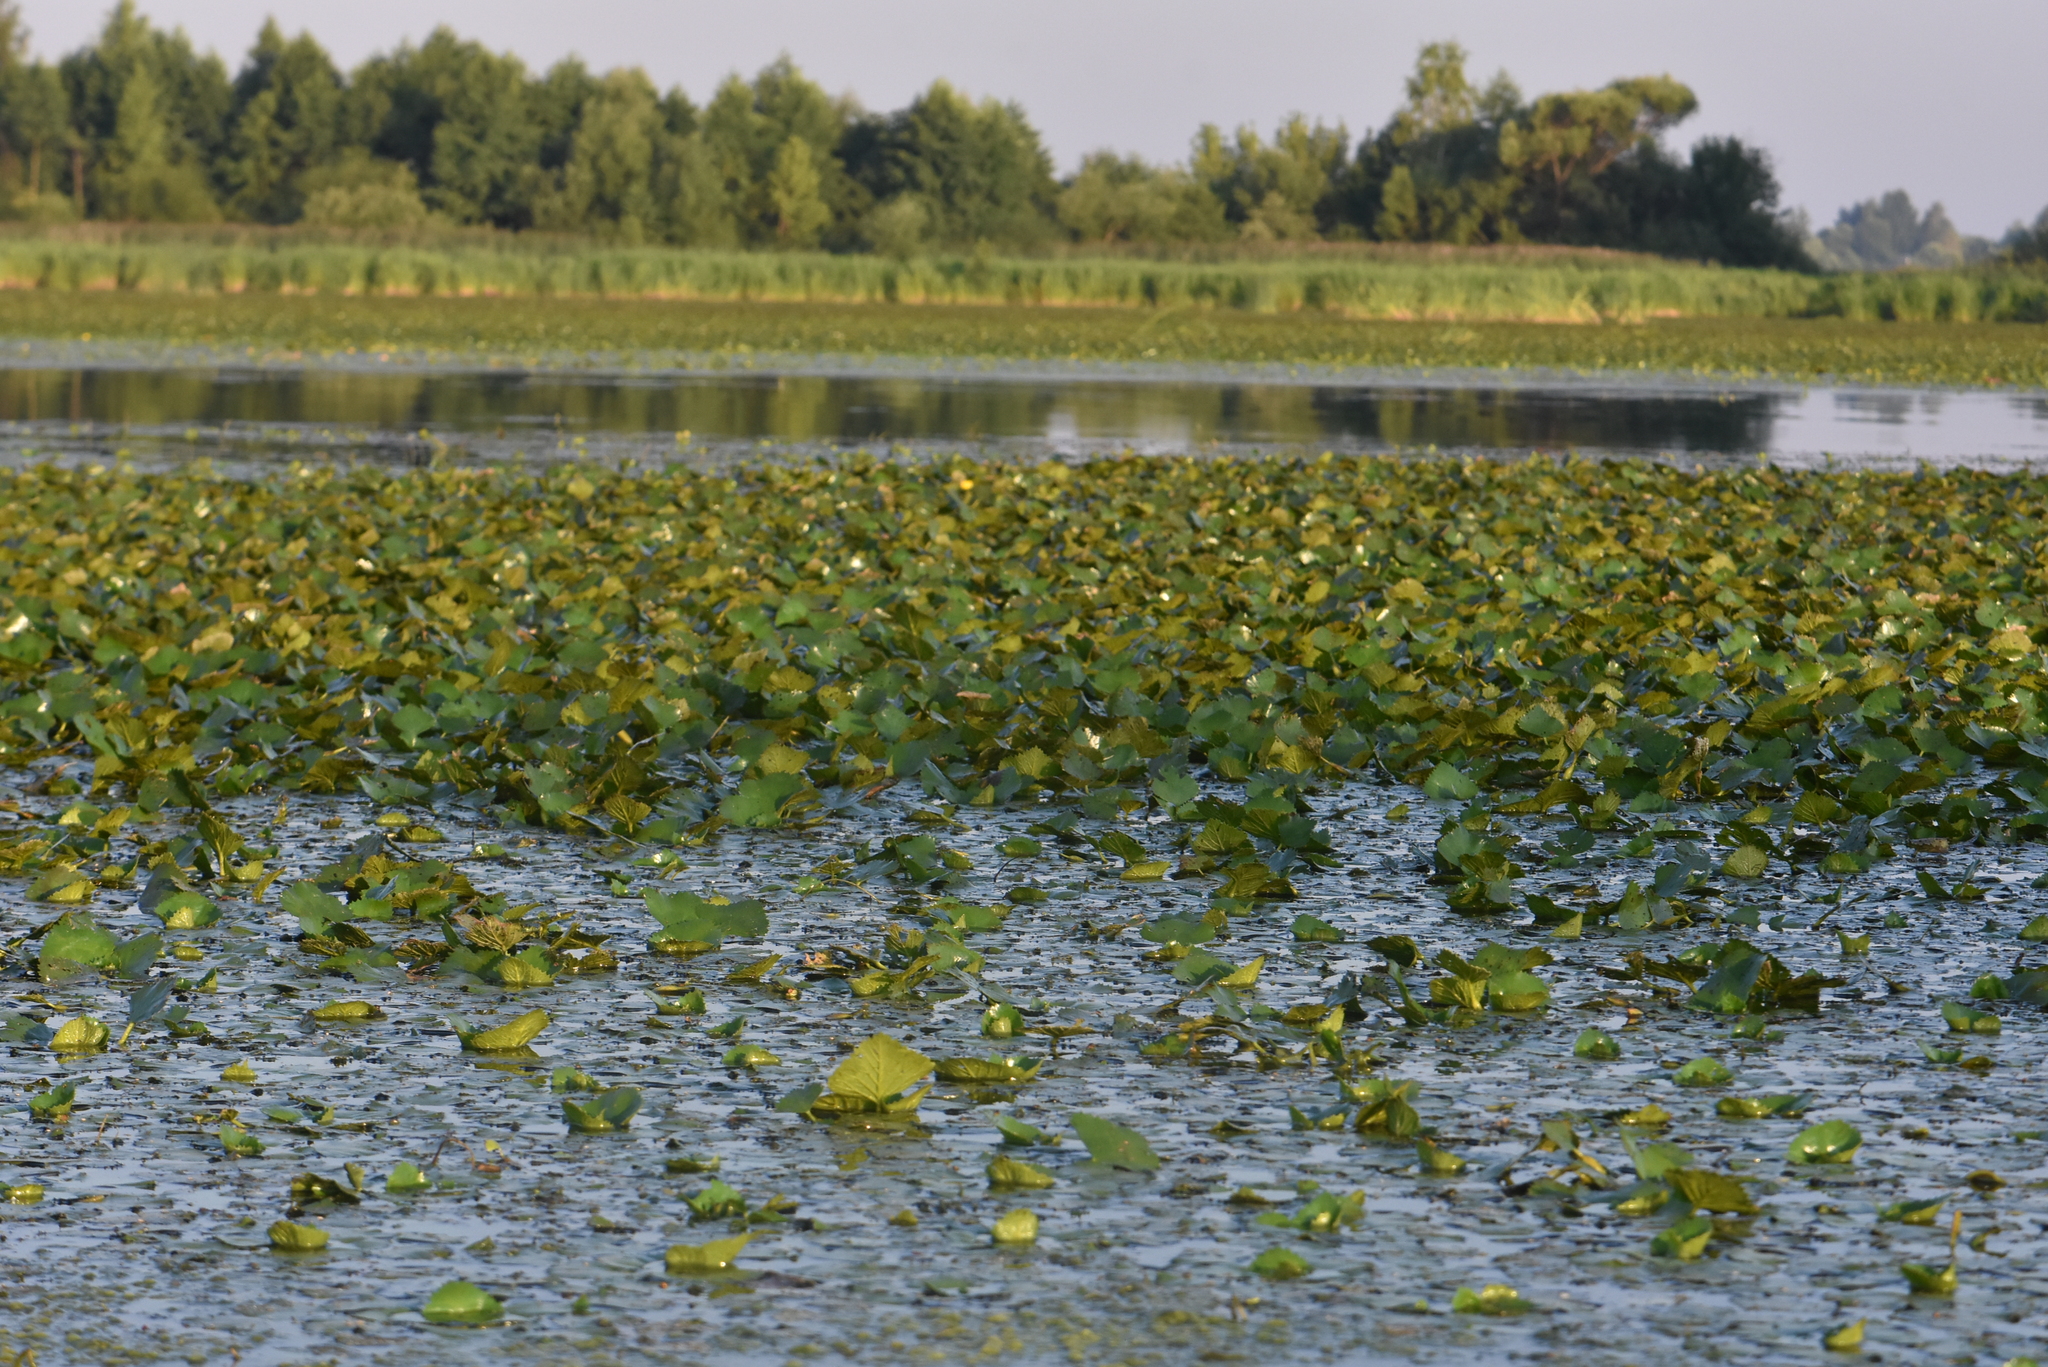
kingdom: Plantae
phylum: Tracheophyta
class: Magnoliopsida
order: Myrtales
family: Lythraceae
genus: Trapa
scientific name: Trapa natans
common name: Water chestnut
